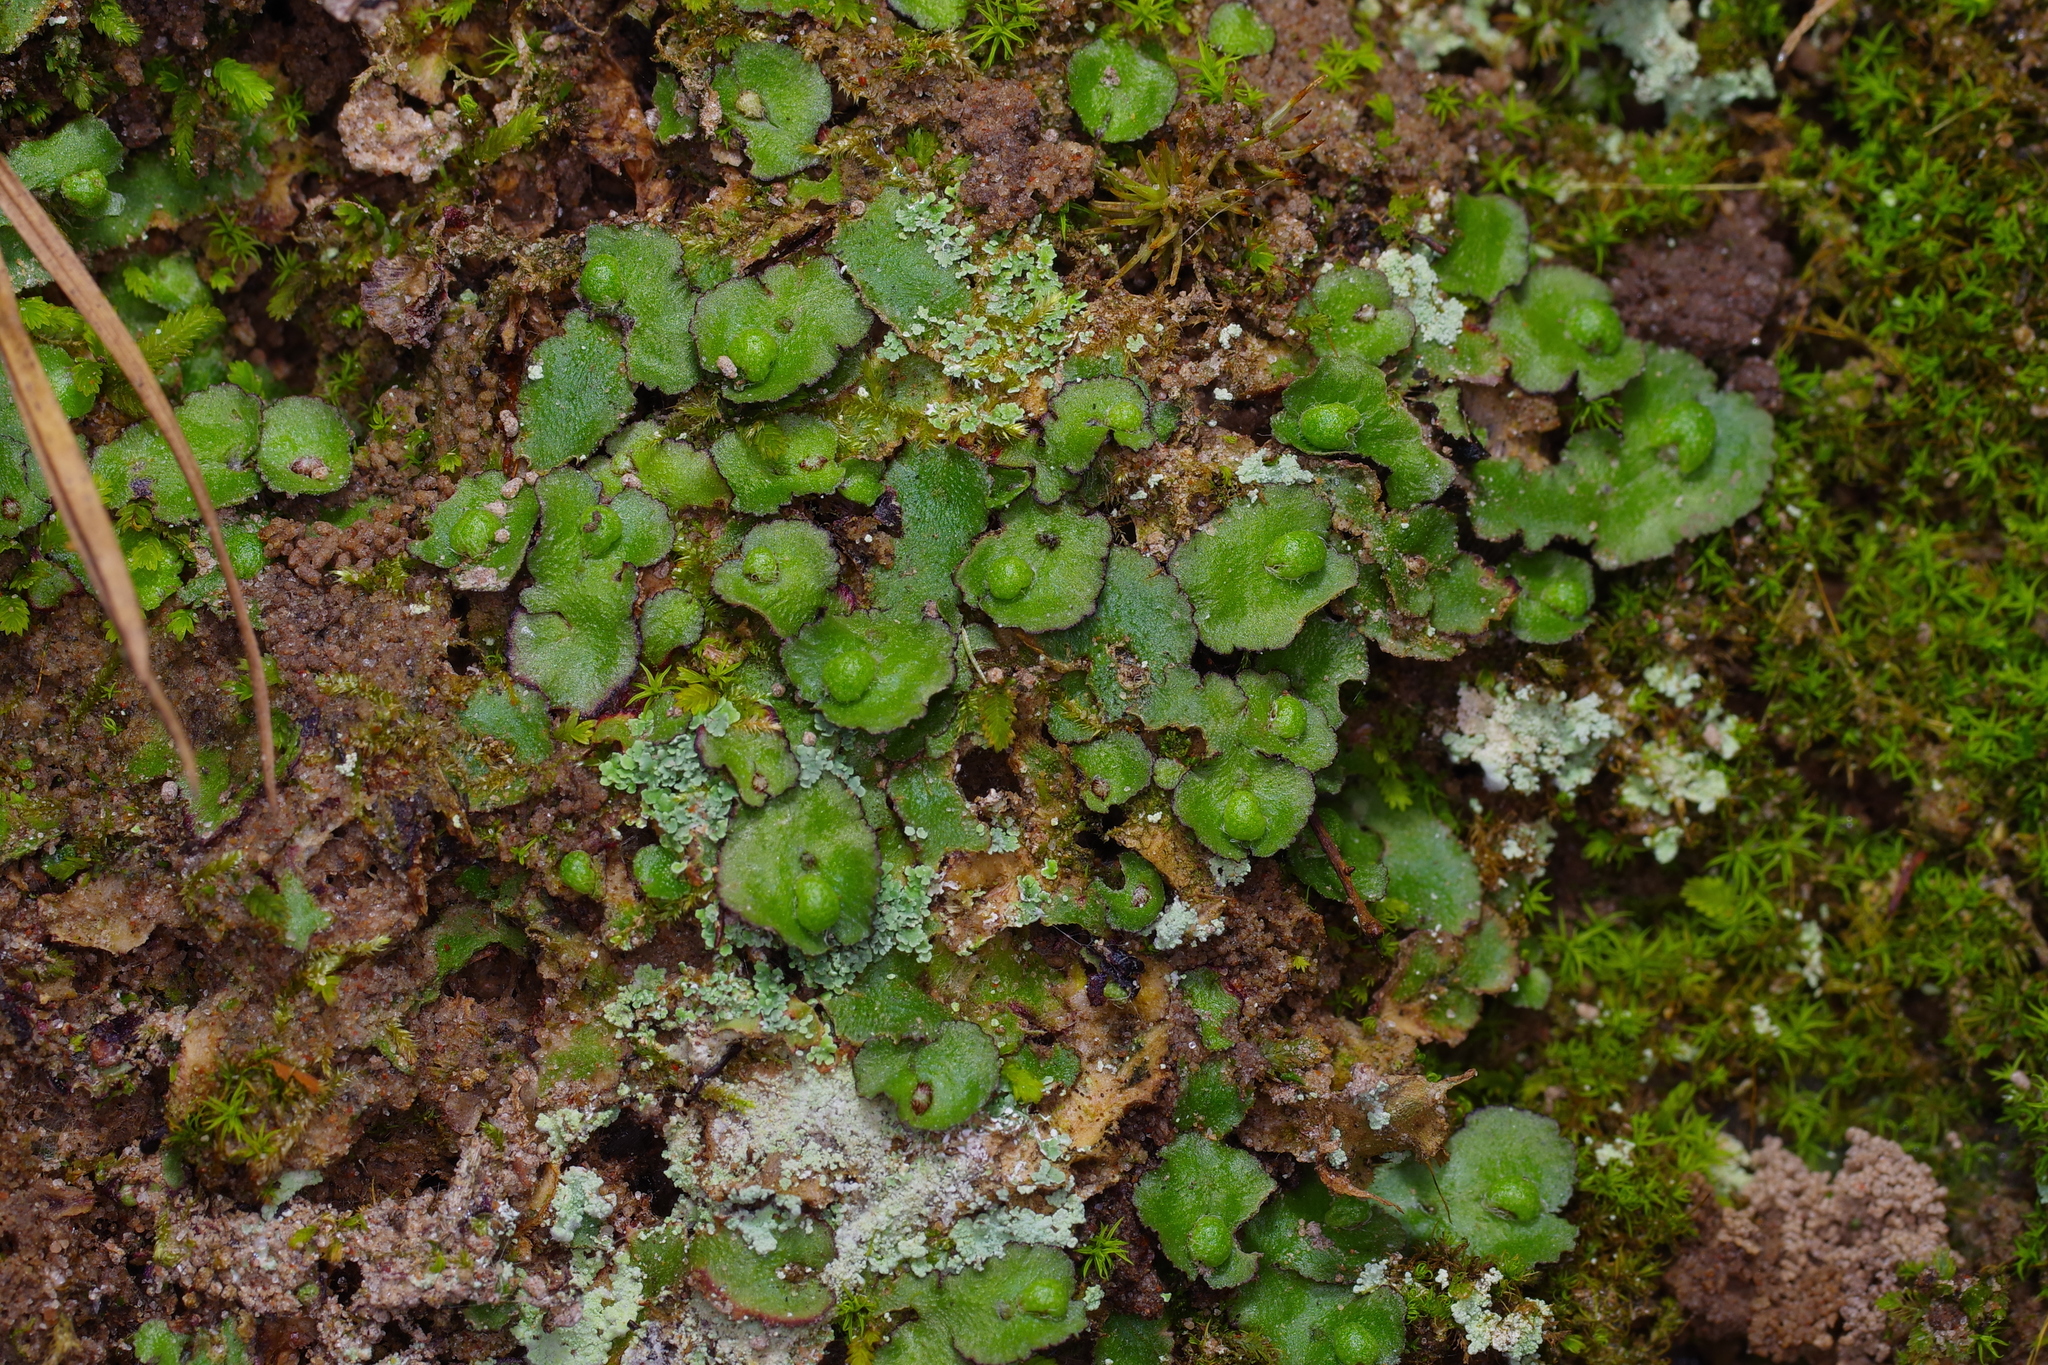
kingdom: Plantae
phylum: Marchantiophyta
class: Marchantiopsida
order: Marchantiales
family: Aytoniaceae
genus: Reboulia
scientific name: Reboulia hemisphaerica
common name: Purple-margined liverwort
